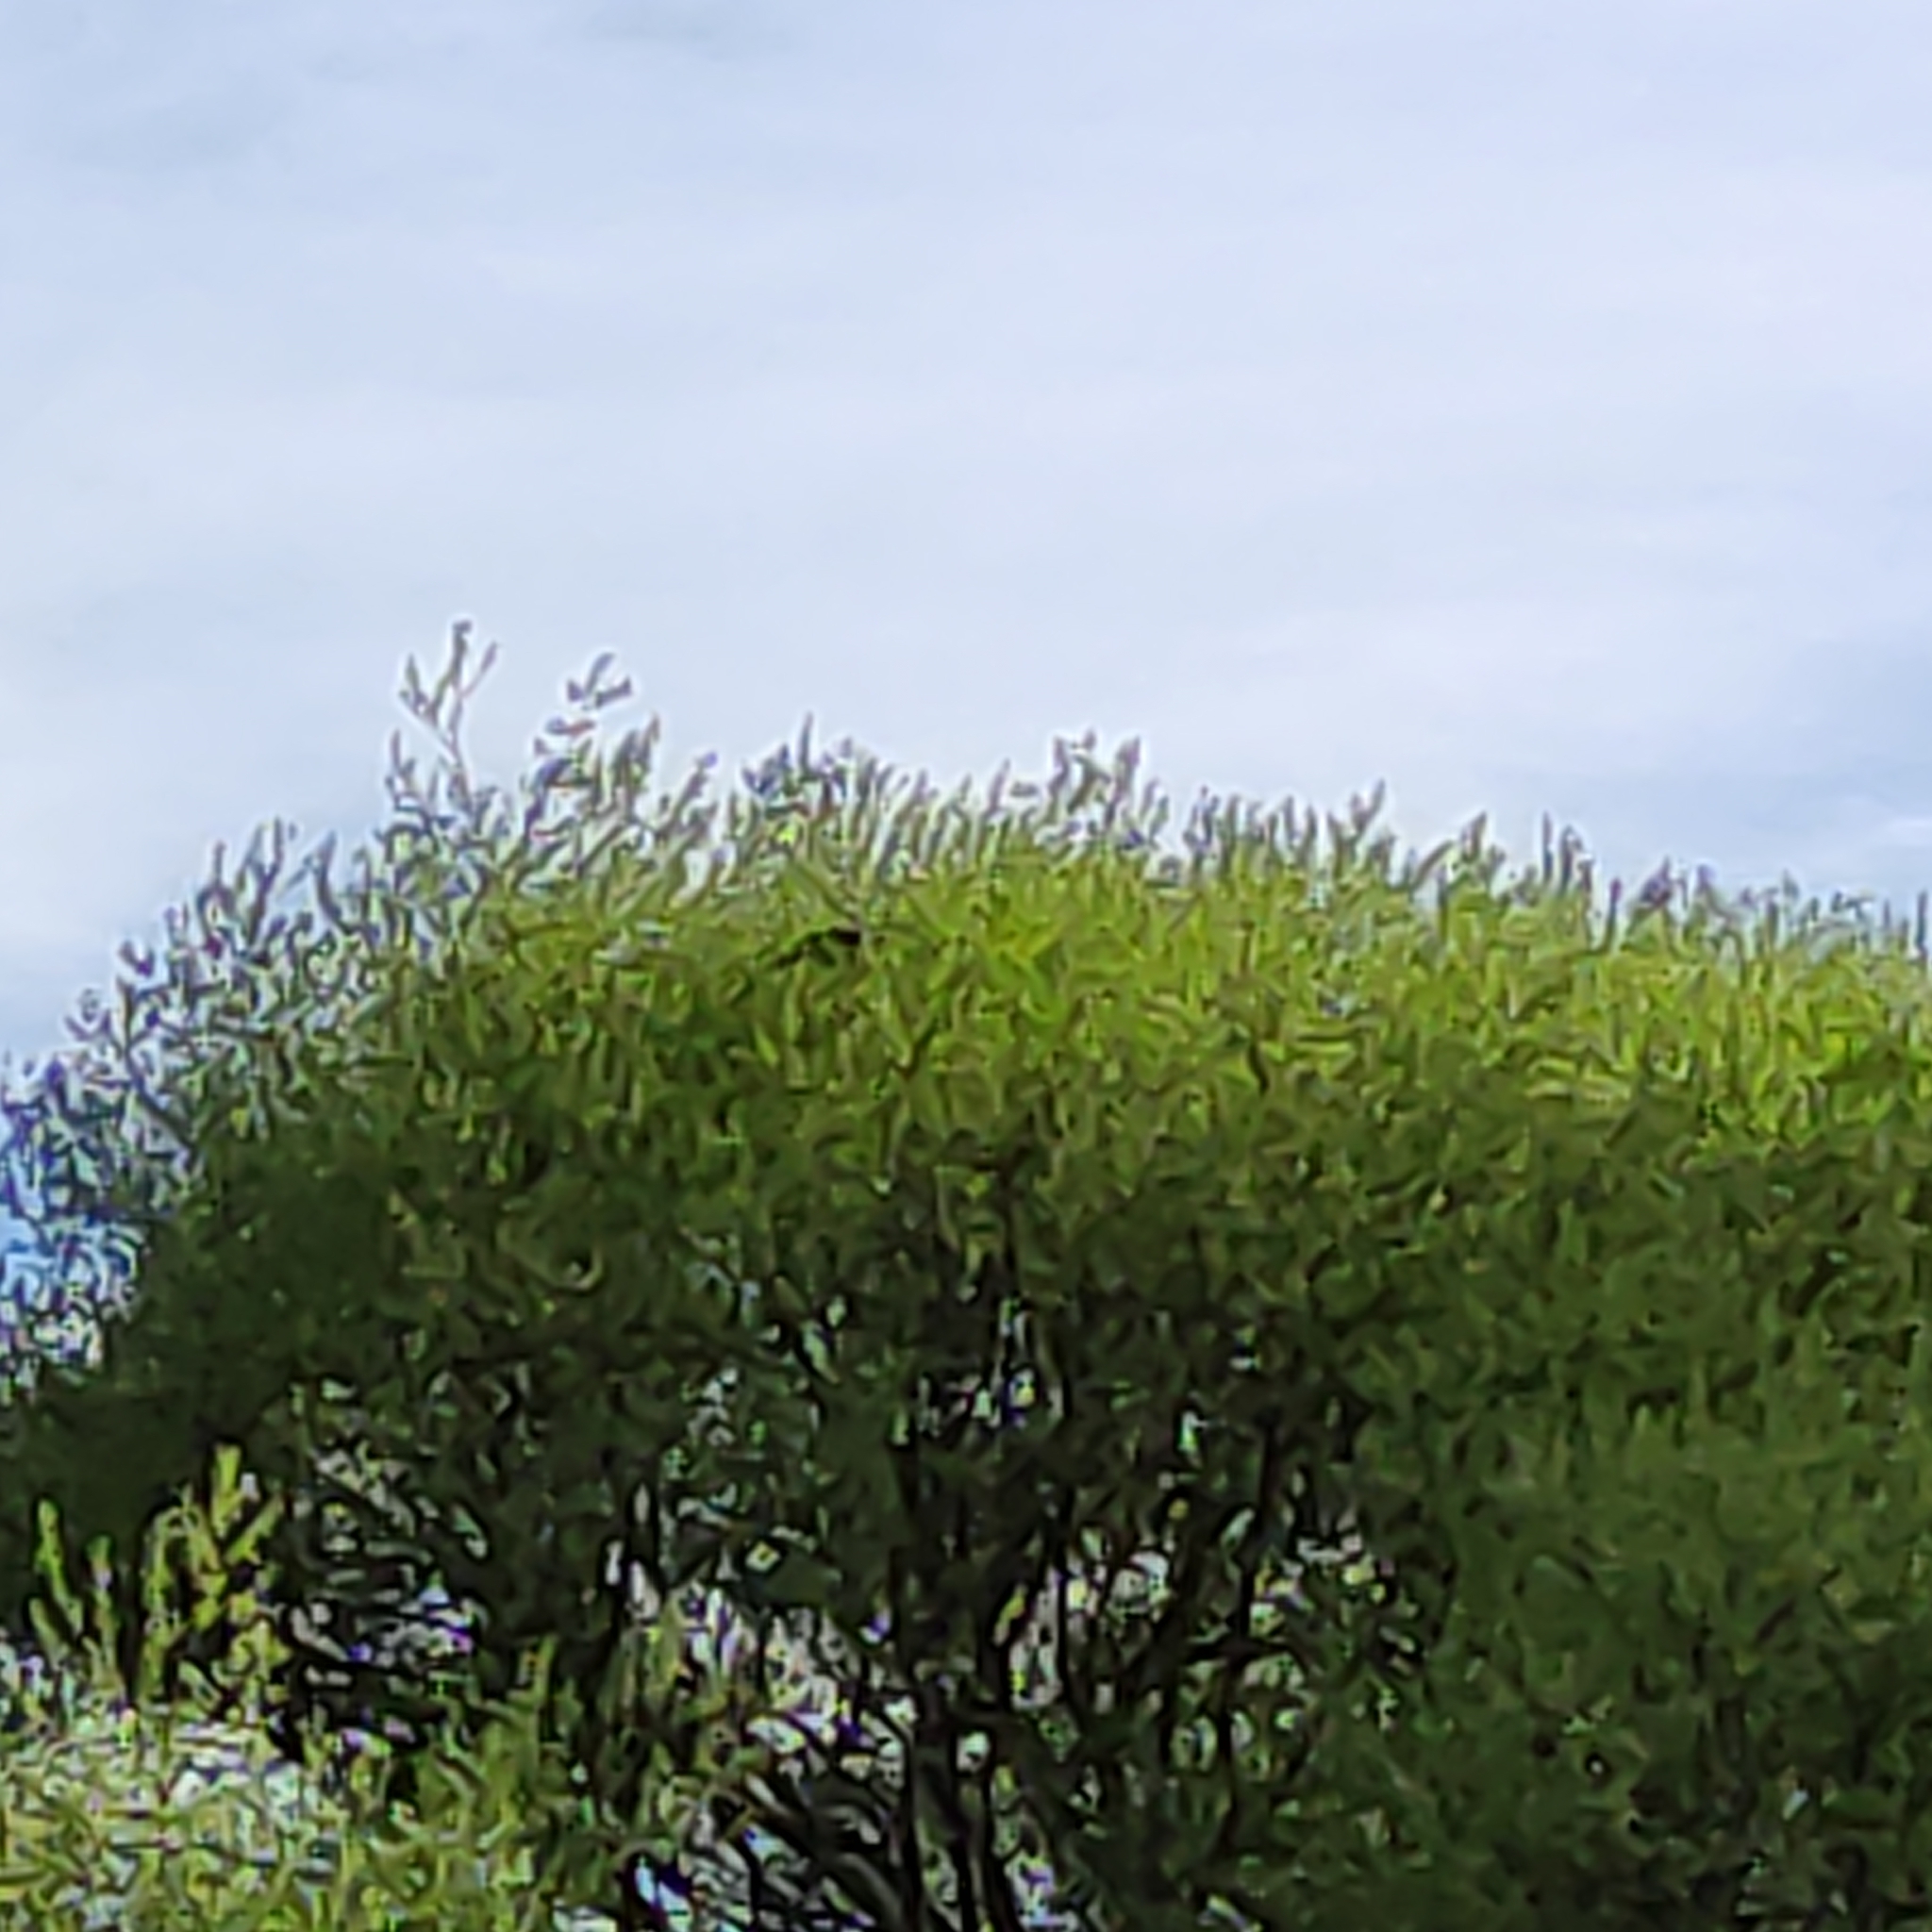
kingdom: Animalia
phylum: Chordata
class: Aves
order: Columbiformes
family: Columbidae
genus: Hemiphaga
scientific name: Hemiphaga novaeseelandiae
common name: New zealand pigeon
